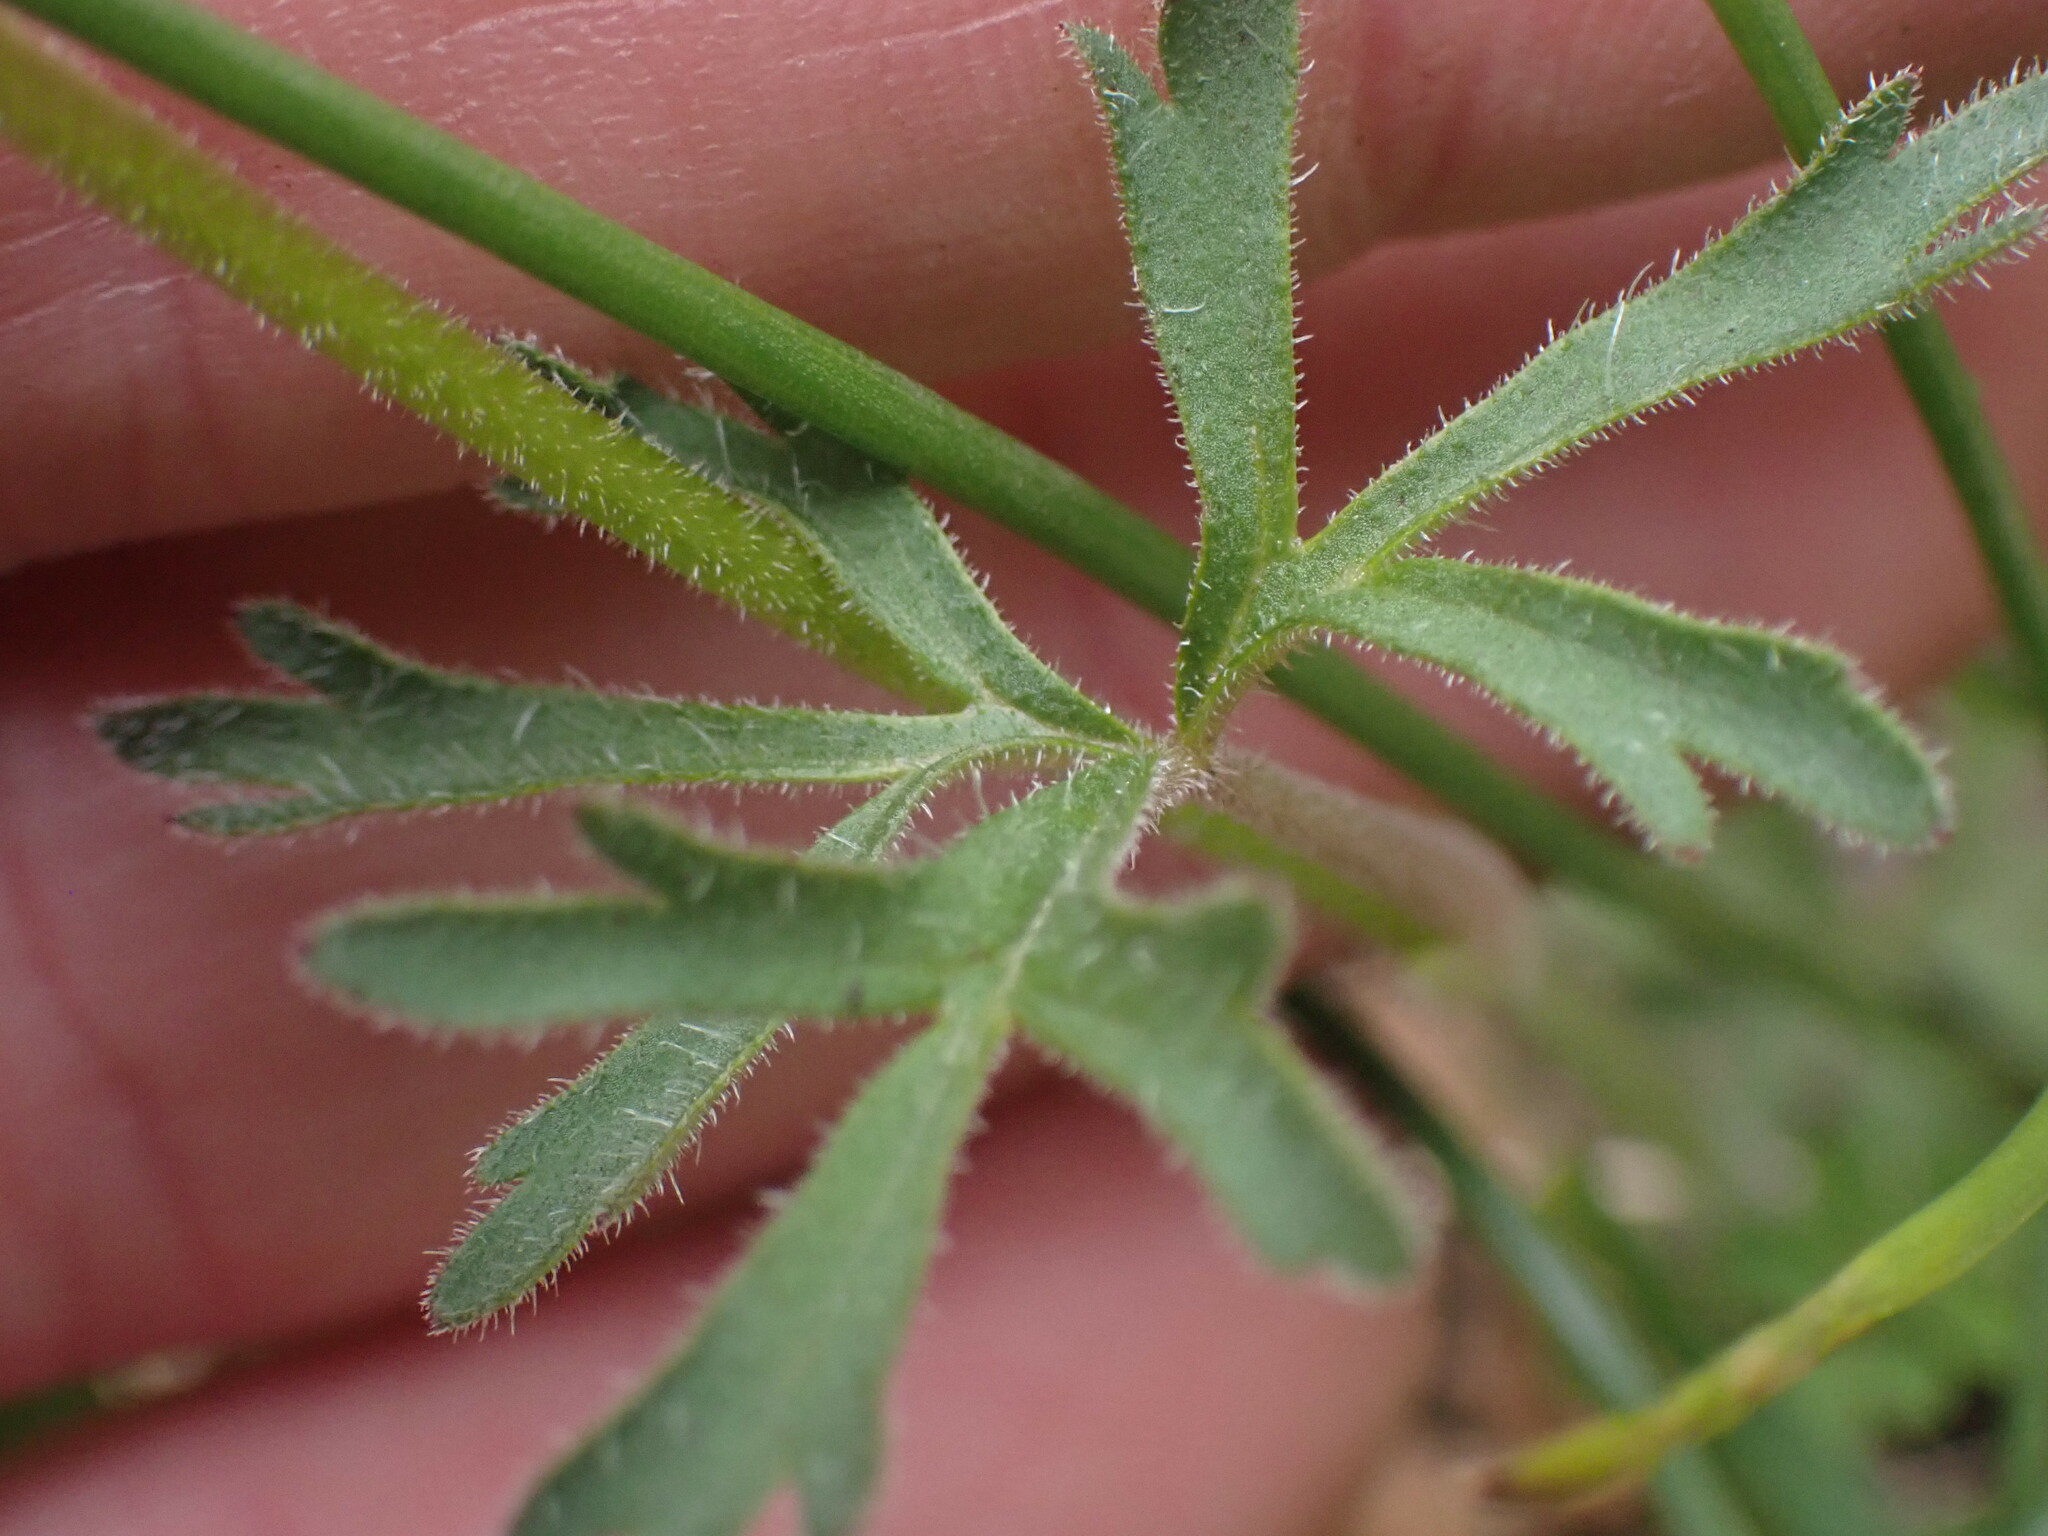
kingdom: Plantae
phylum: Tracheophyta
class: Magnoliopsida
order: Saxifragales
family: Saxifragaceae
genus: Lithophragma
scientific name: Lithophragma parviflorum
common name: Small-flowered fringe-cup
